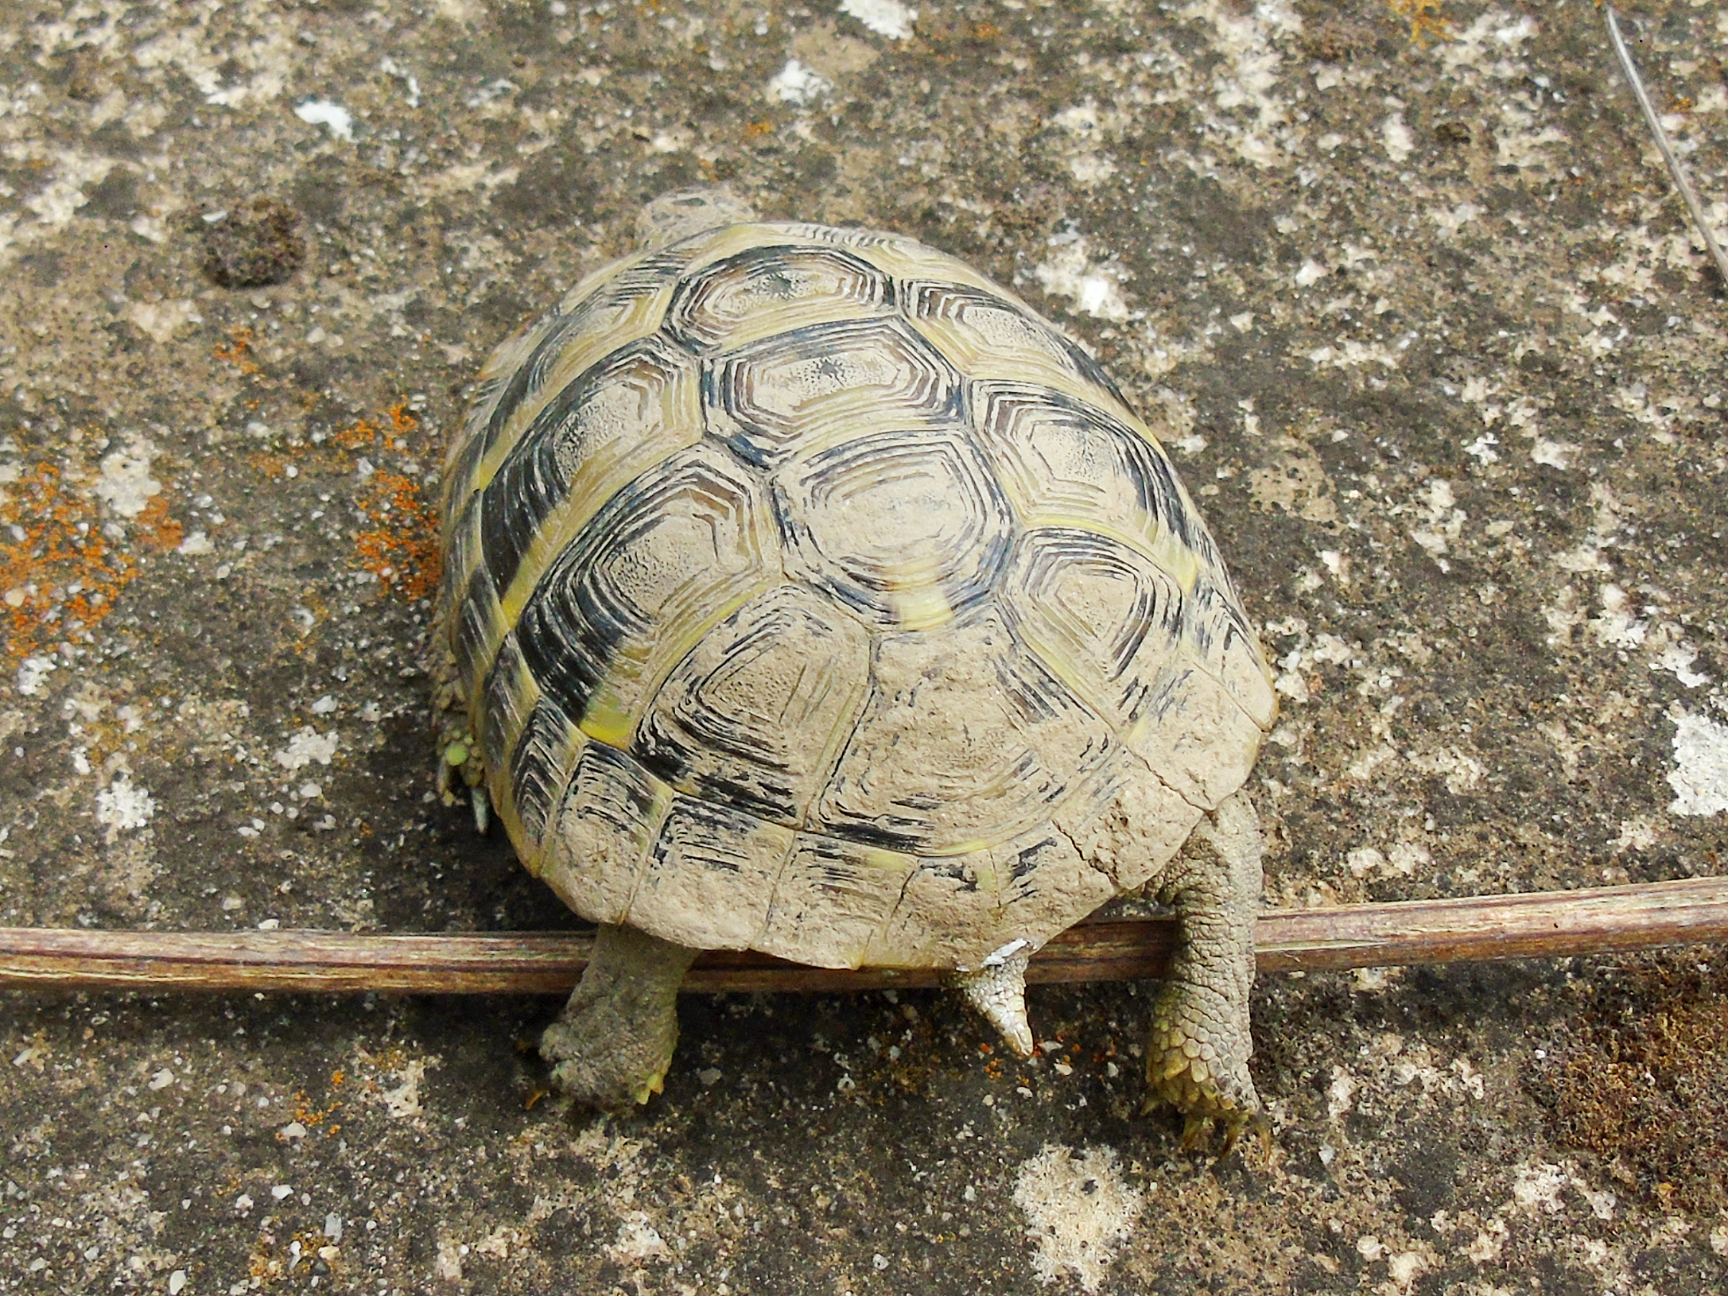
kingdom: Animalia
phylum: Chordata
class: Testudines
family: Testudinidae
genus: Testudo
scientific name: Testudo hermanni
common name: Hermann's tortoise
